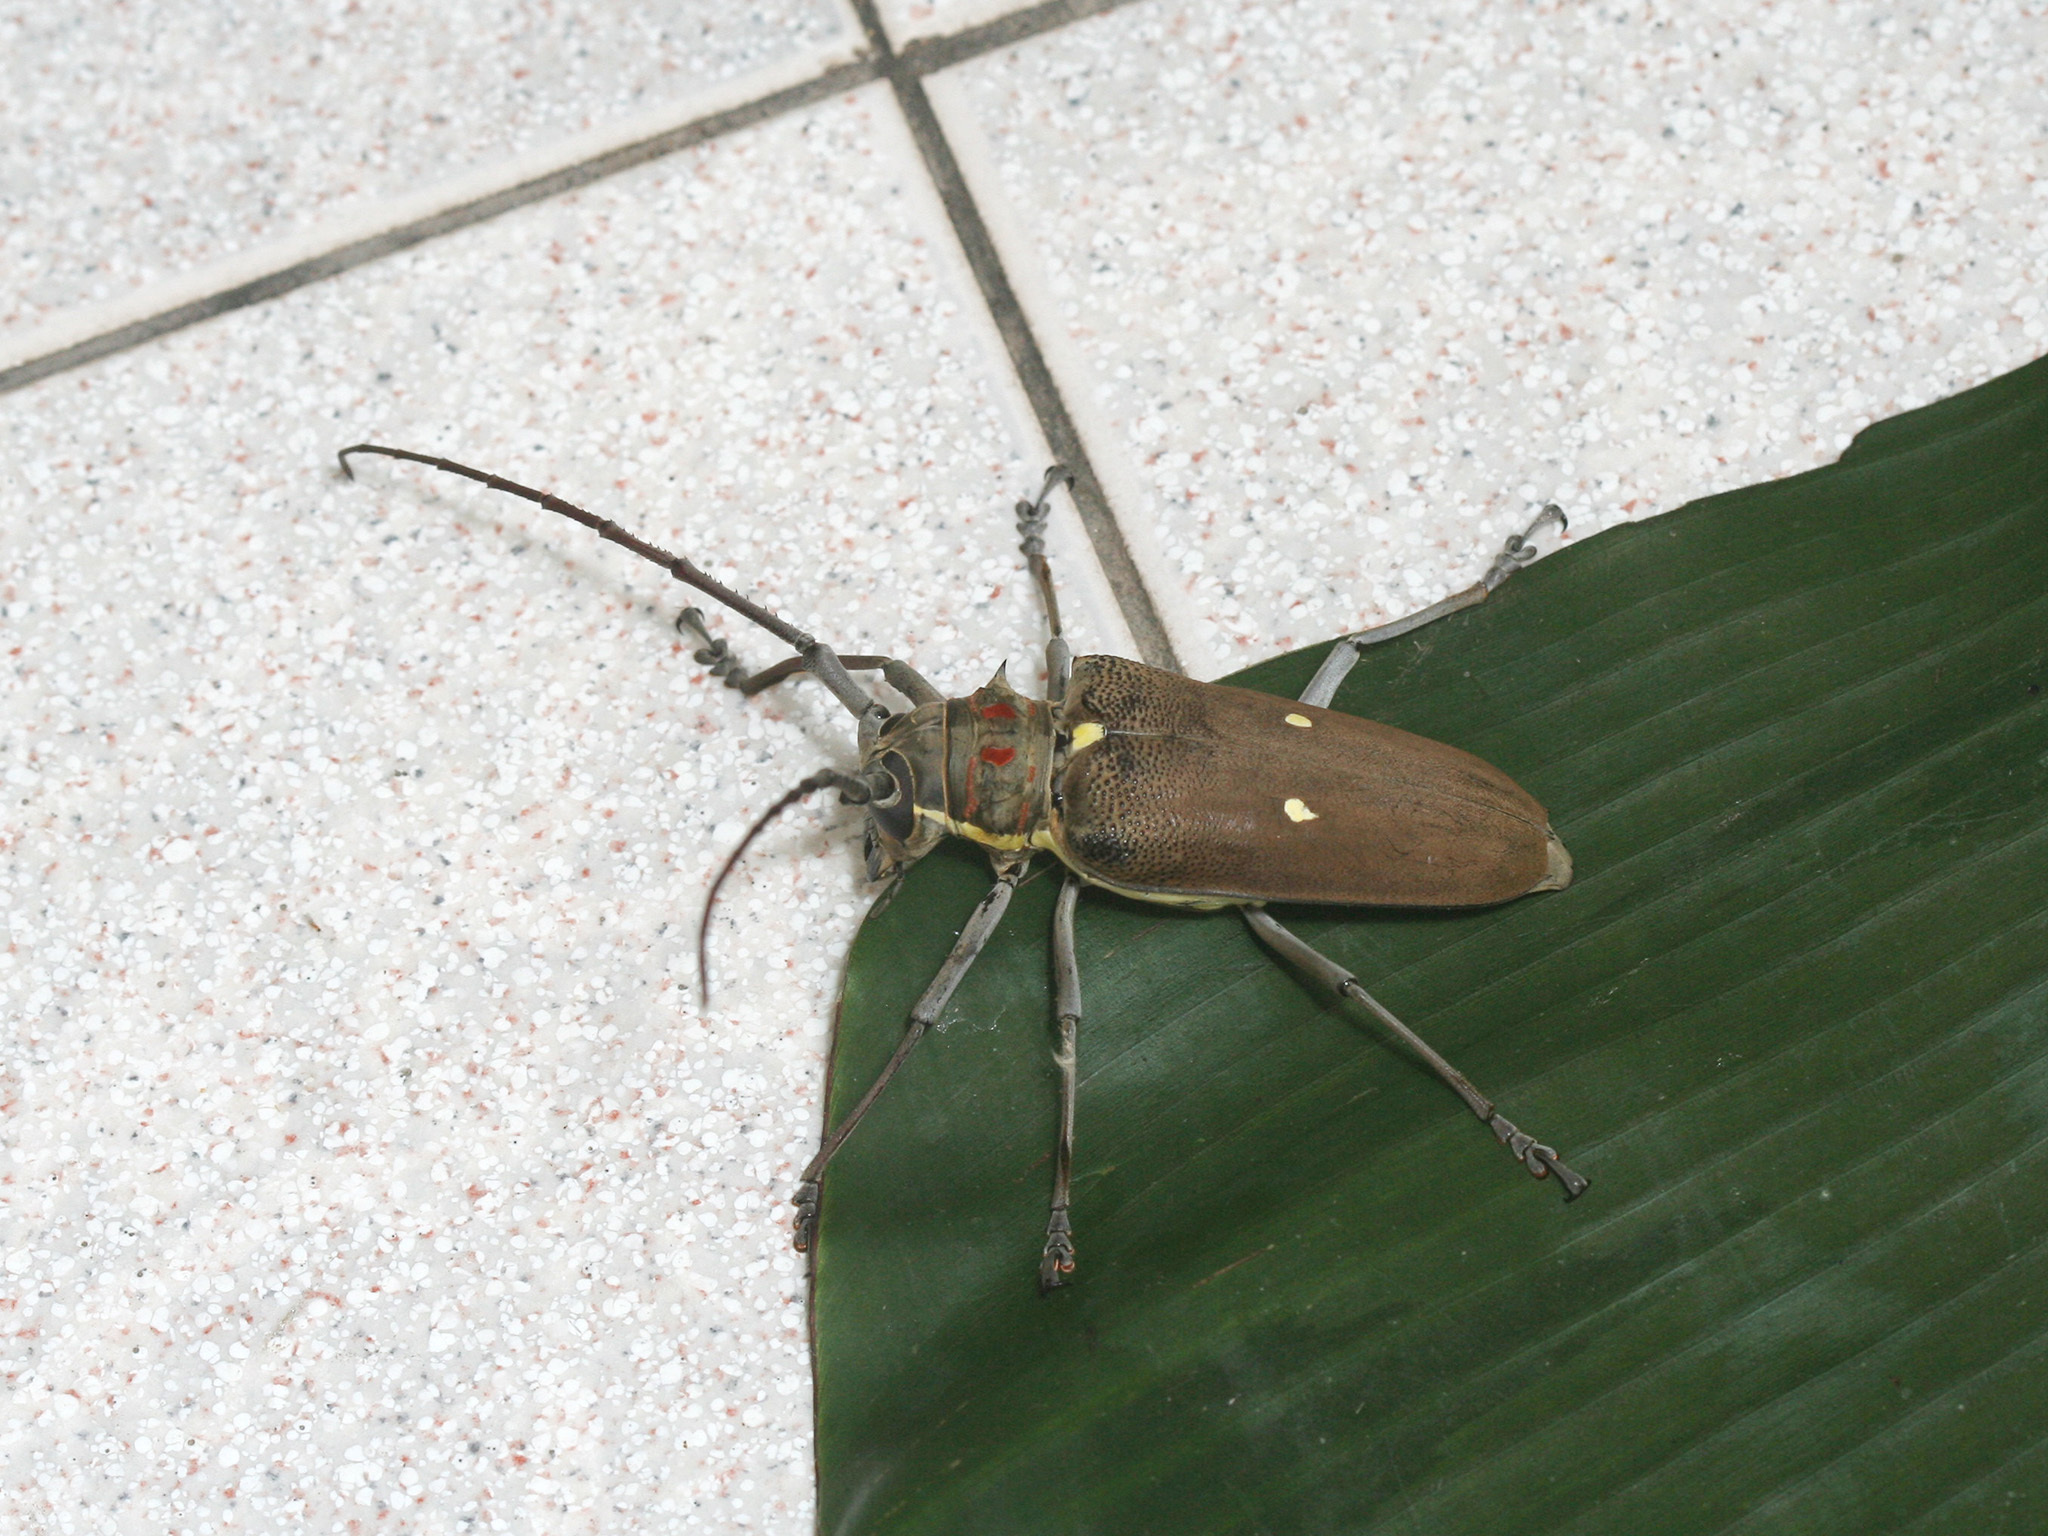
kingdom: Animalia
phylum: Arthropoda
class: Insecta
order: Coleoptera
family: Cerambycidae
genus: Batocera
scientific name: Batocera thomsonii
